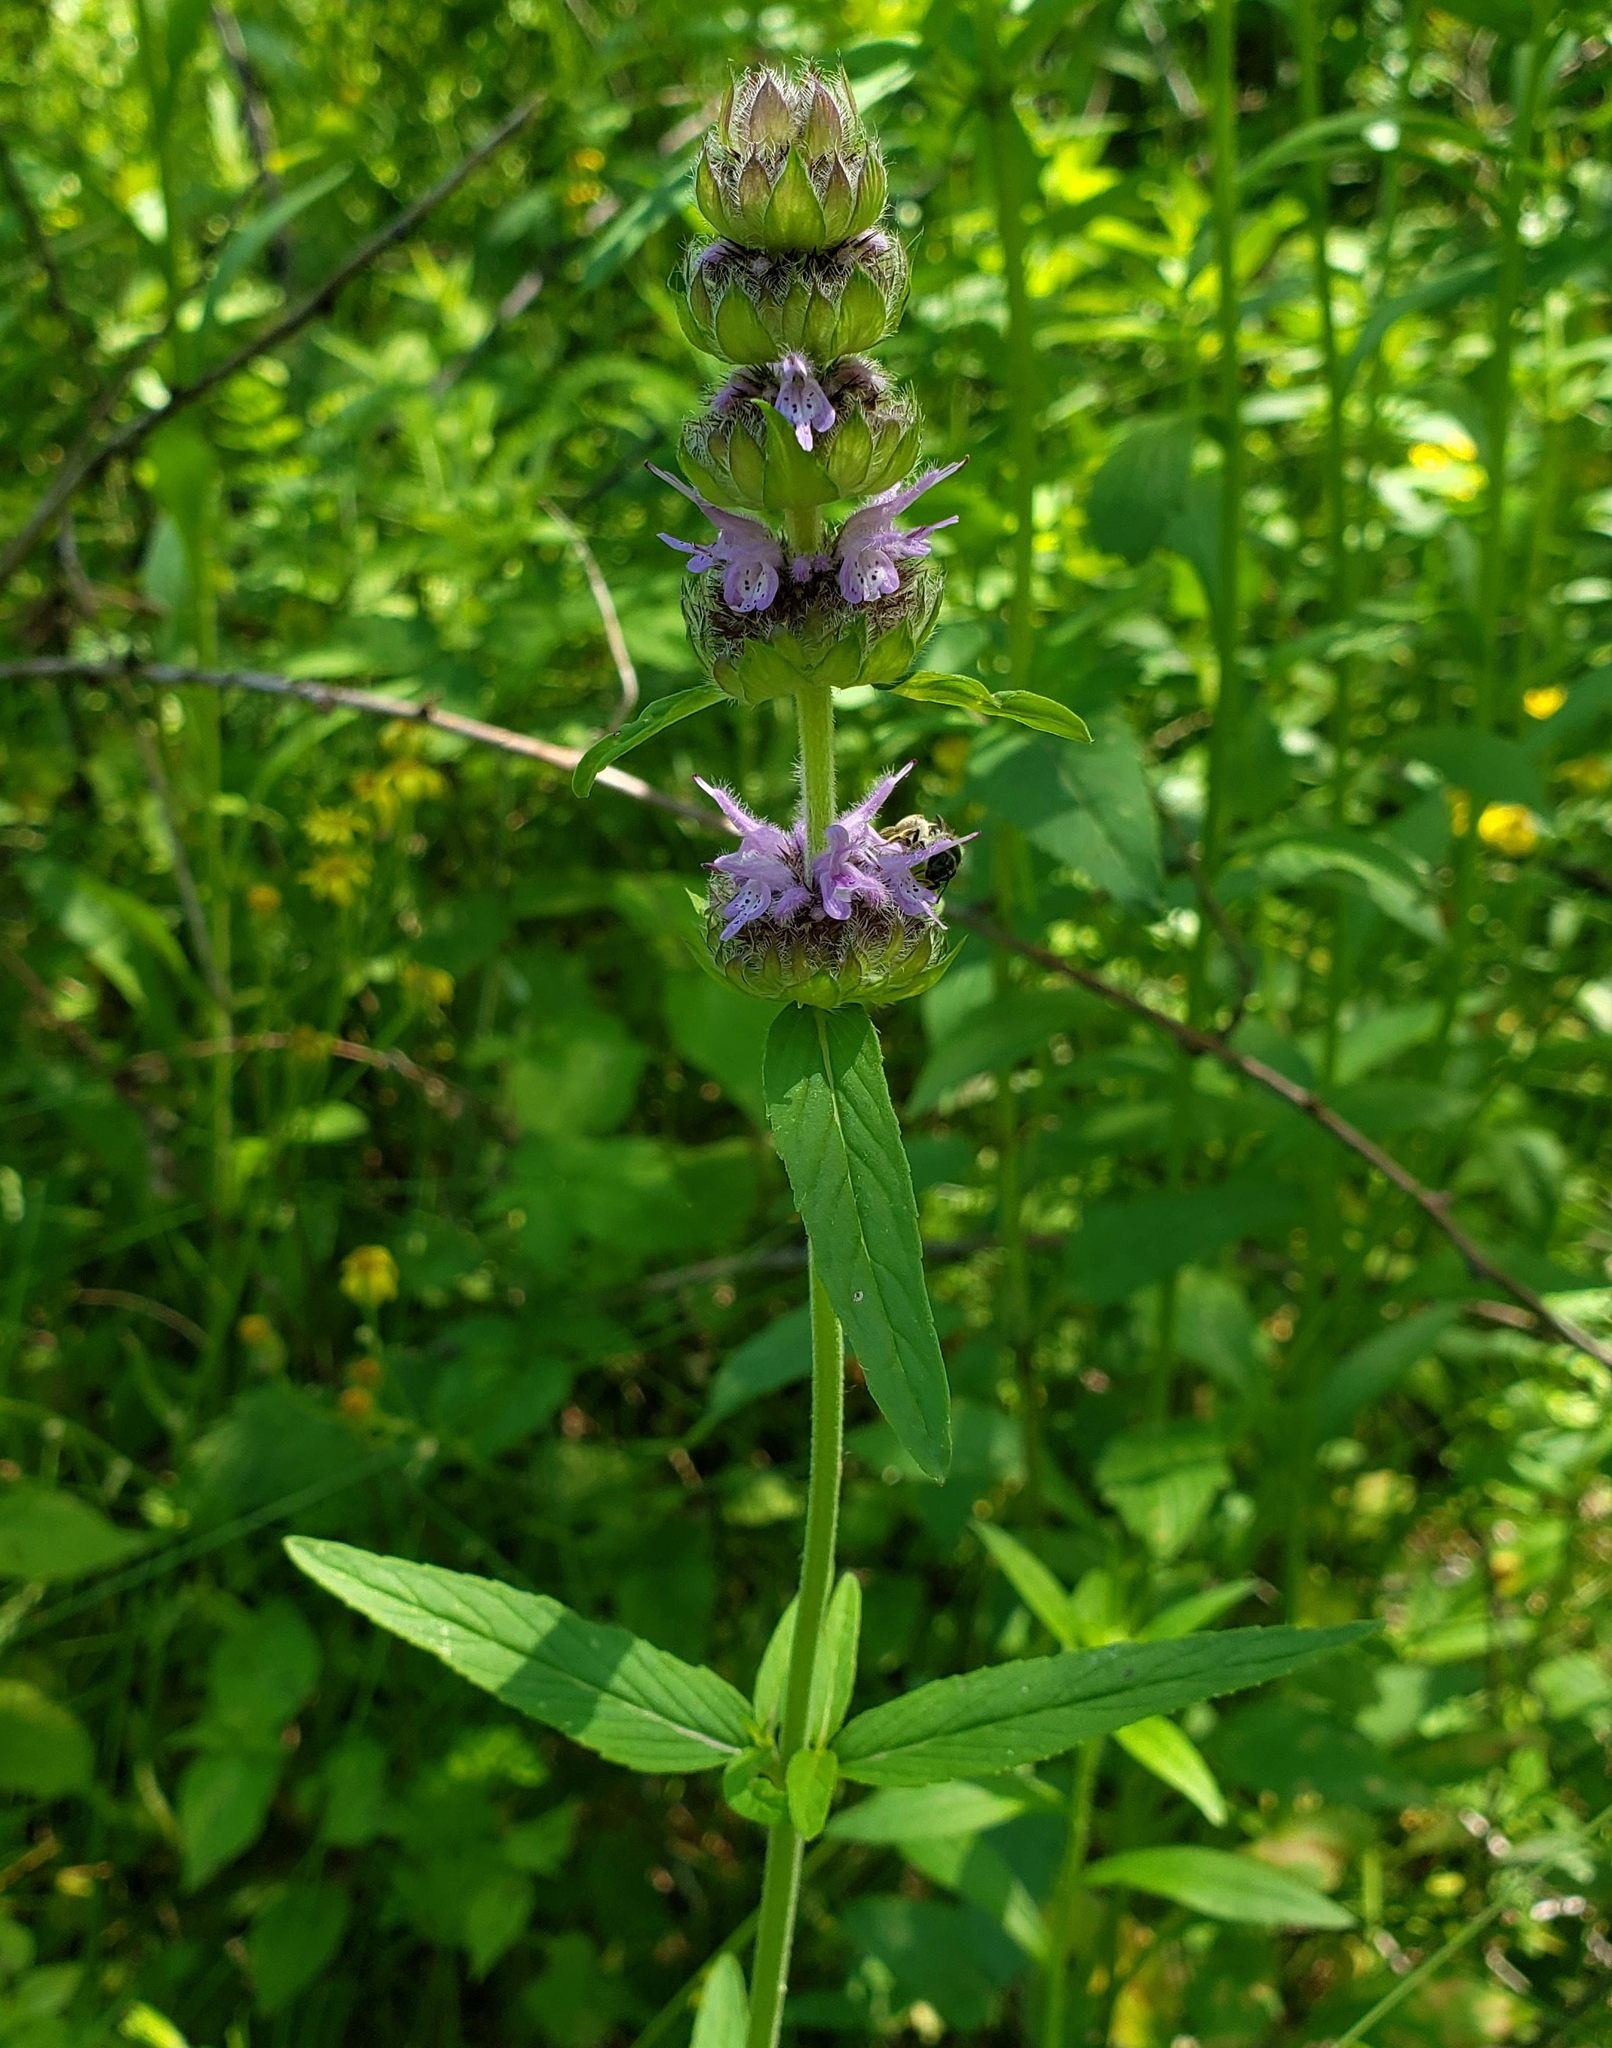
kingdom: Plantae
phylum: Tracheophyta
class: Magnoliopsida
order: Lamiales
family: Lamiaceae
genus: Blephilia
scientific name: Blephilia ciliata
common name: Downy blephilia
